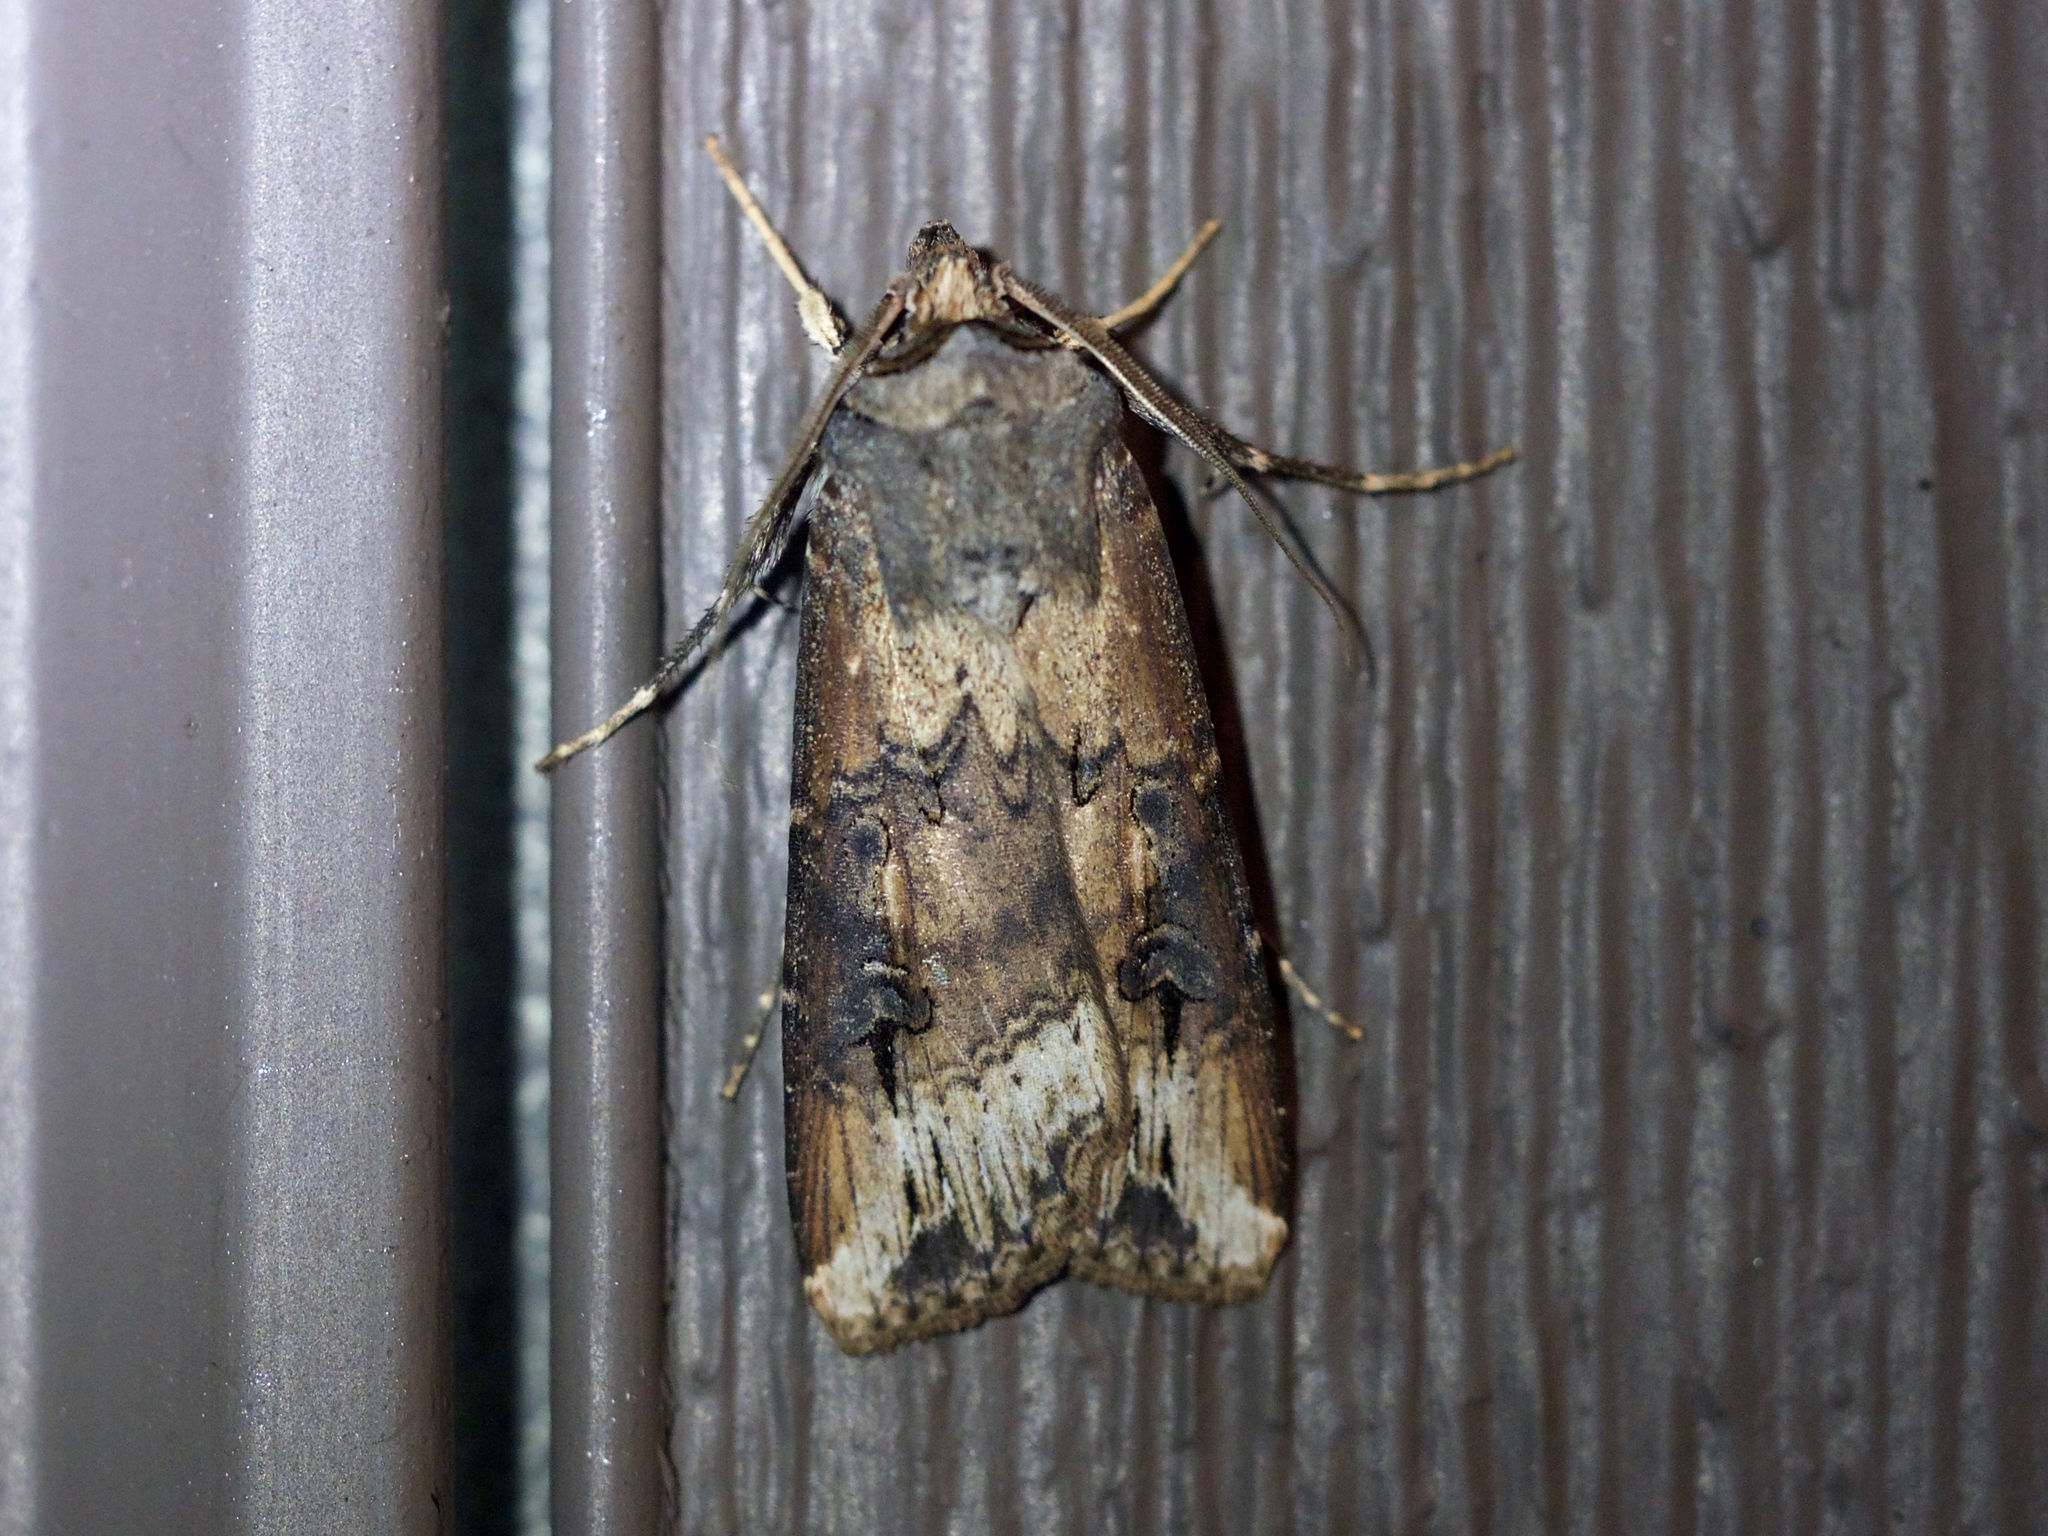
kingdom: Animalia
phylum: Arthropoda
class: Insecta
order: Lepidoptera
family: Noctuidae
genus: Agrotis
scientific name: Agrotis ipsilon
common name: Dark sword-grass
